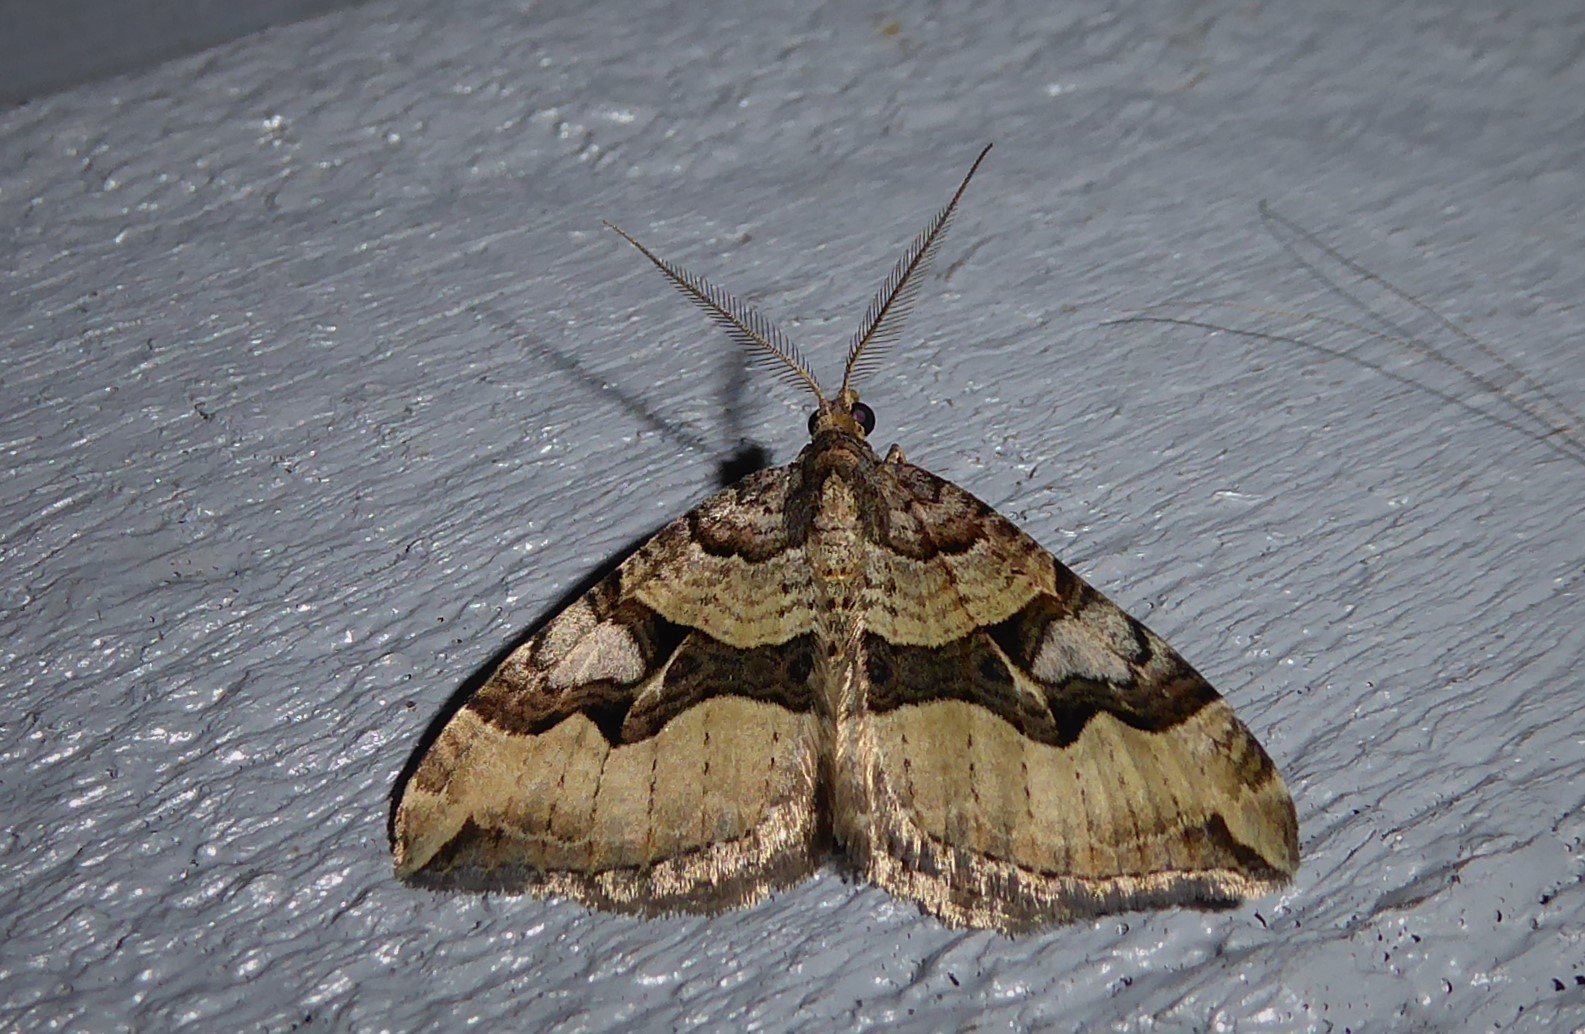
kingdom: Animalia
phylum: Arthropoda
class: Insecta
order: Lepidoptera
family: Geometridae
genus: Xanthorhoe
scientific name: Xanthorhoe semifissata
